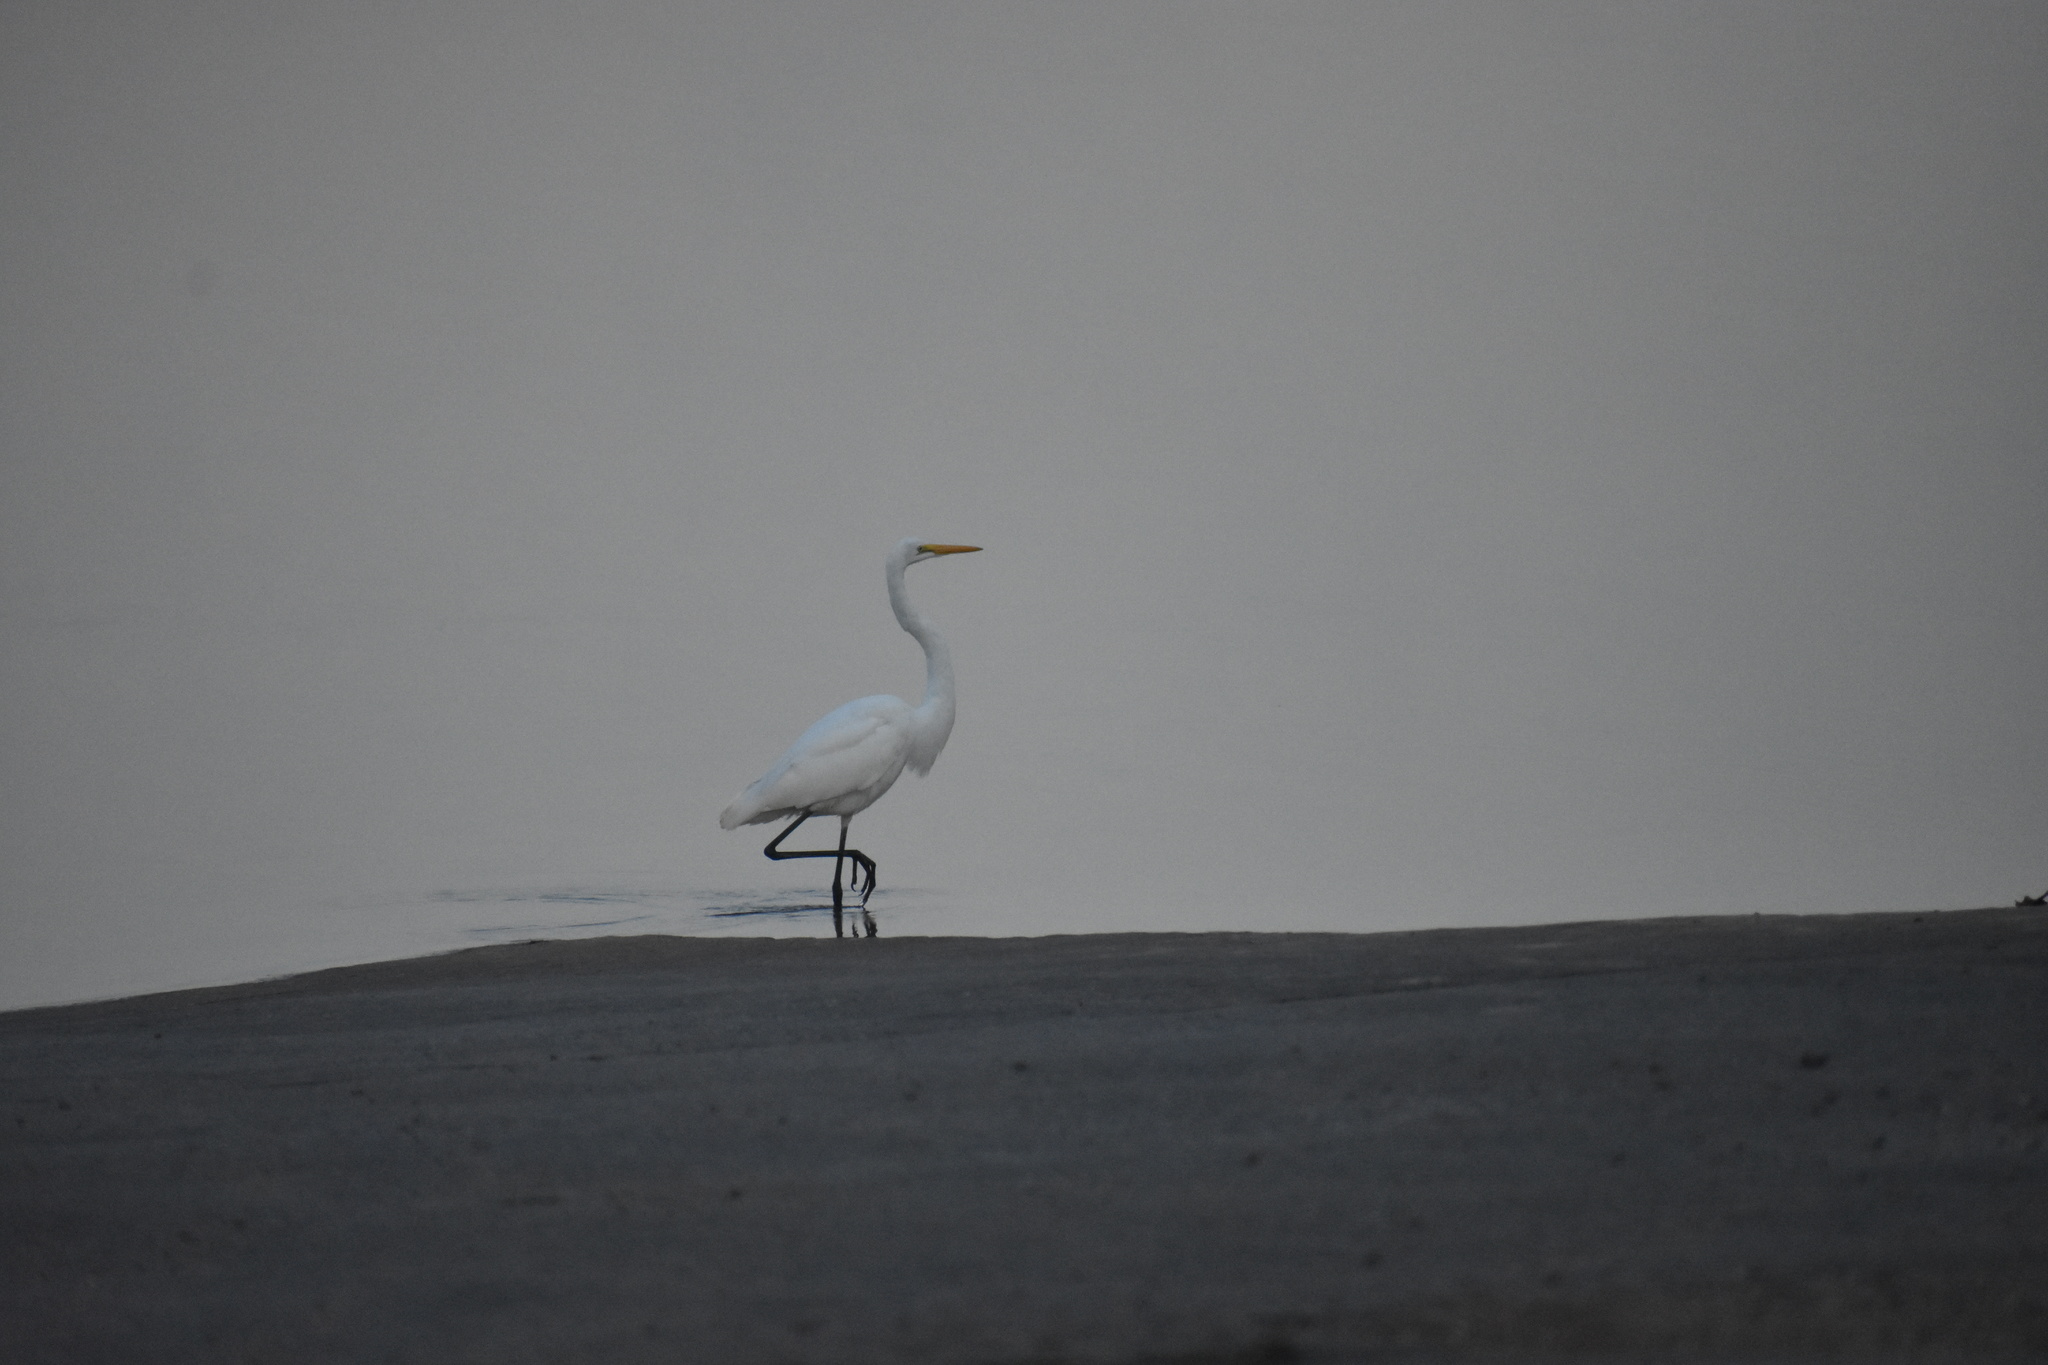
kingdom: Animalia
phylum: Chordata
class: Aves
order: Pelecaniformes
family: Ardeidae
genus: Ardea
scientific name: Ardea alba
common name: Great egret
